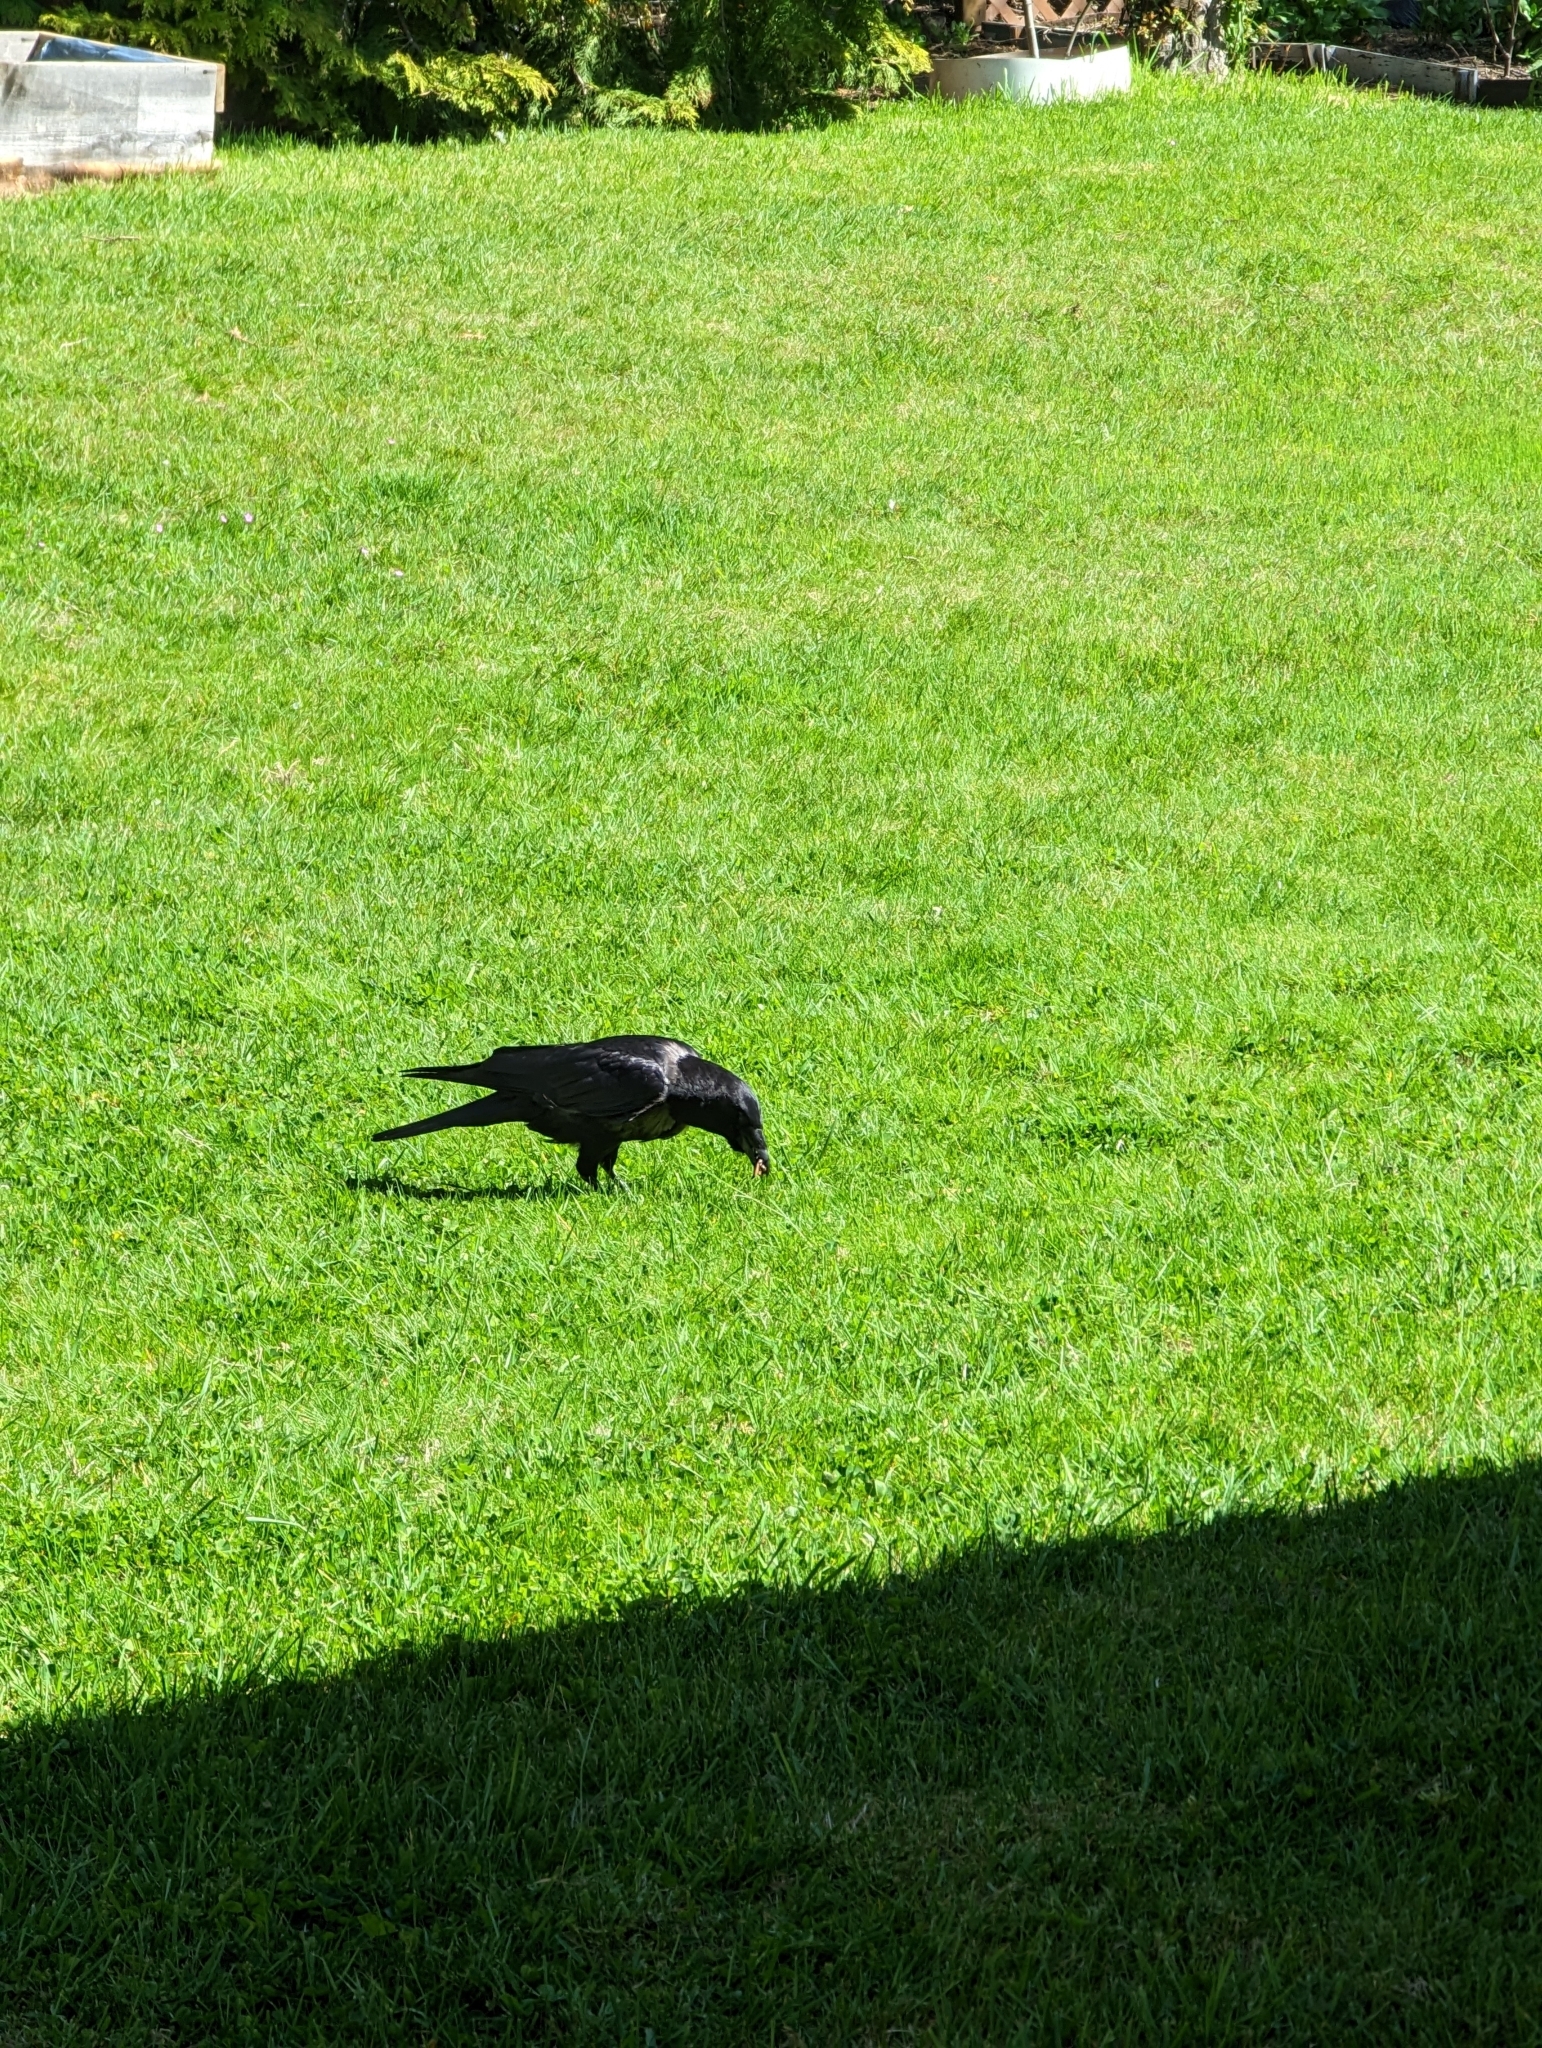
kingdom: Animalia
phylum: Chordata
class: Aves
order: Passeriformes
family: Corvidae
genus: Corvus
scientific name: Corvus brachyrhynchos
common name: American crow
